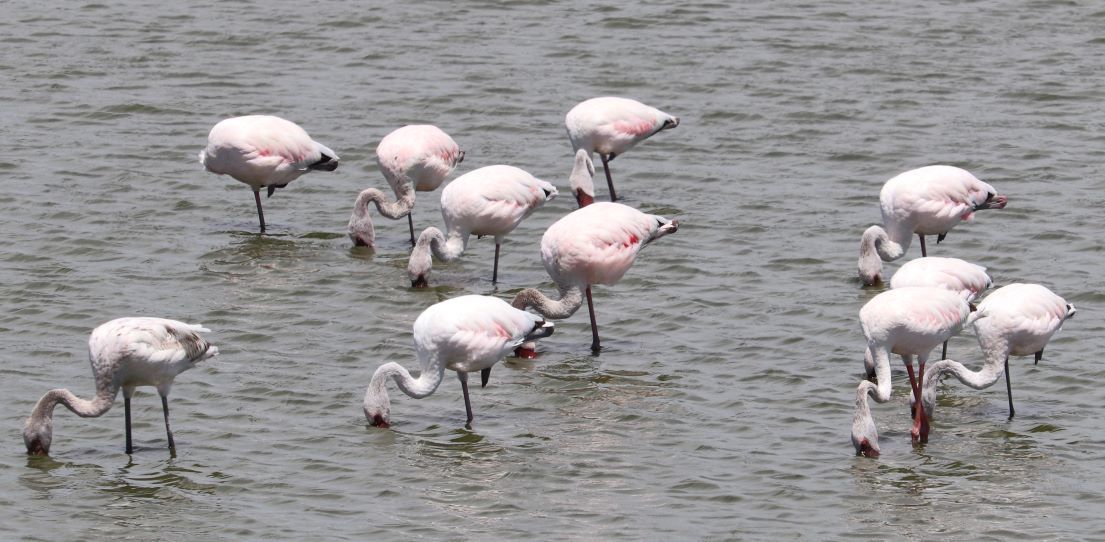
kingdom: Animalia
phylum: Chordata
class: Aves
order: Phoenicopteriformes
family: Phoenicopteridae
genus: Phoeniconaias
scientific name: Phoeniconaias minor
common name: Lesser flamingo
